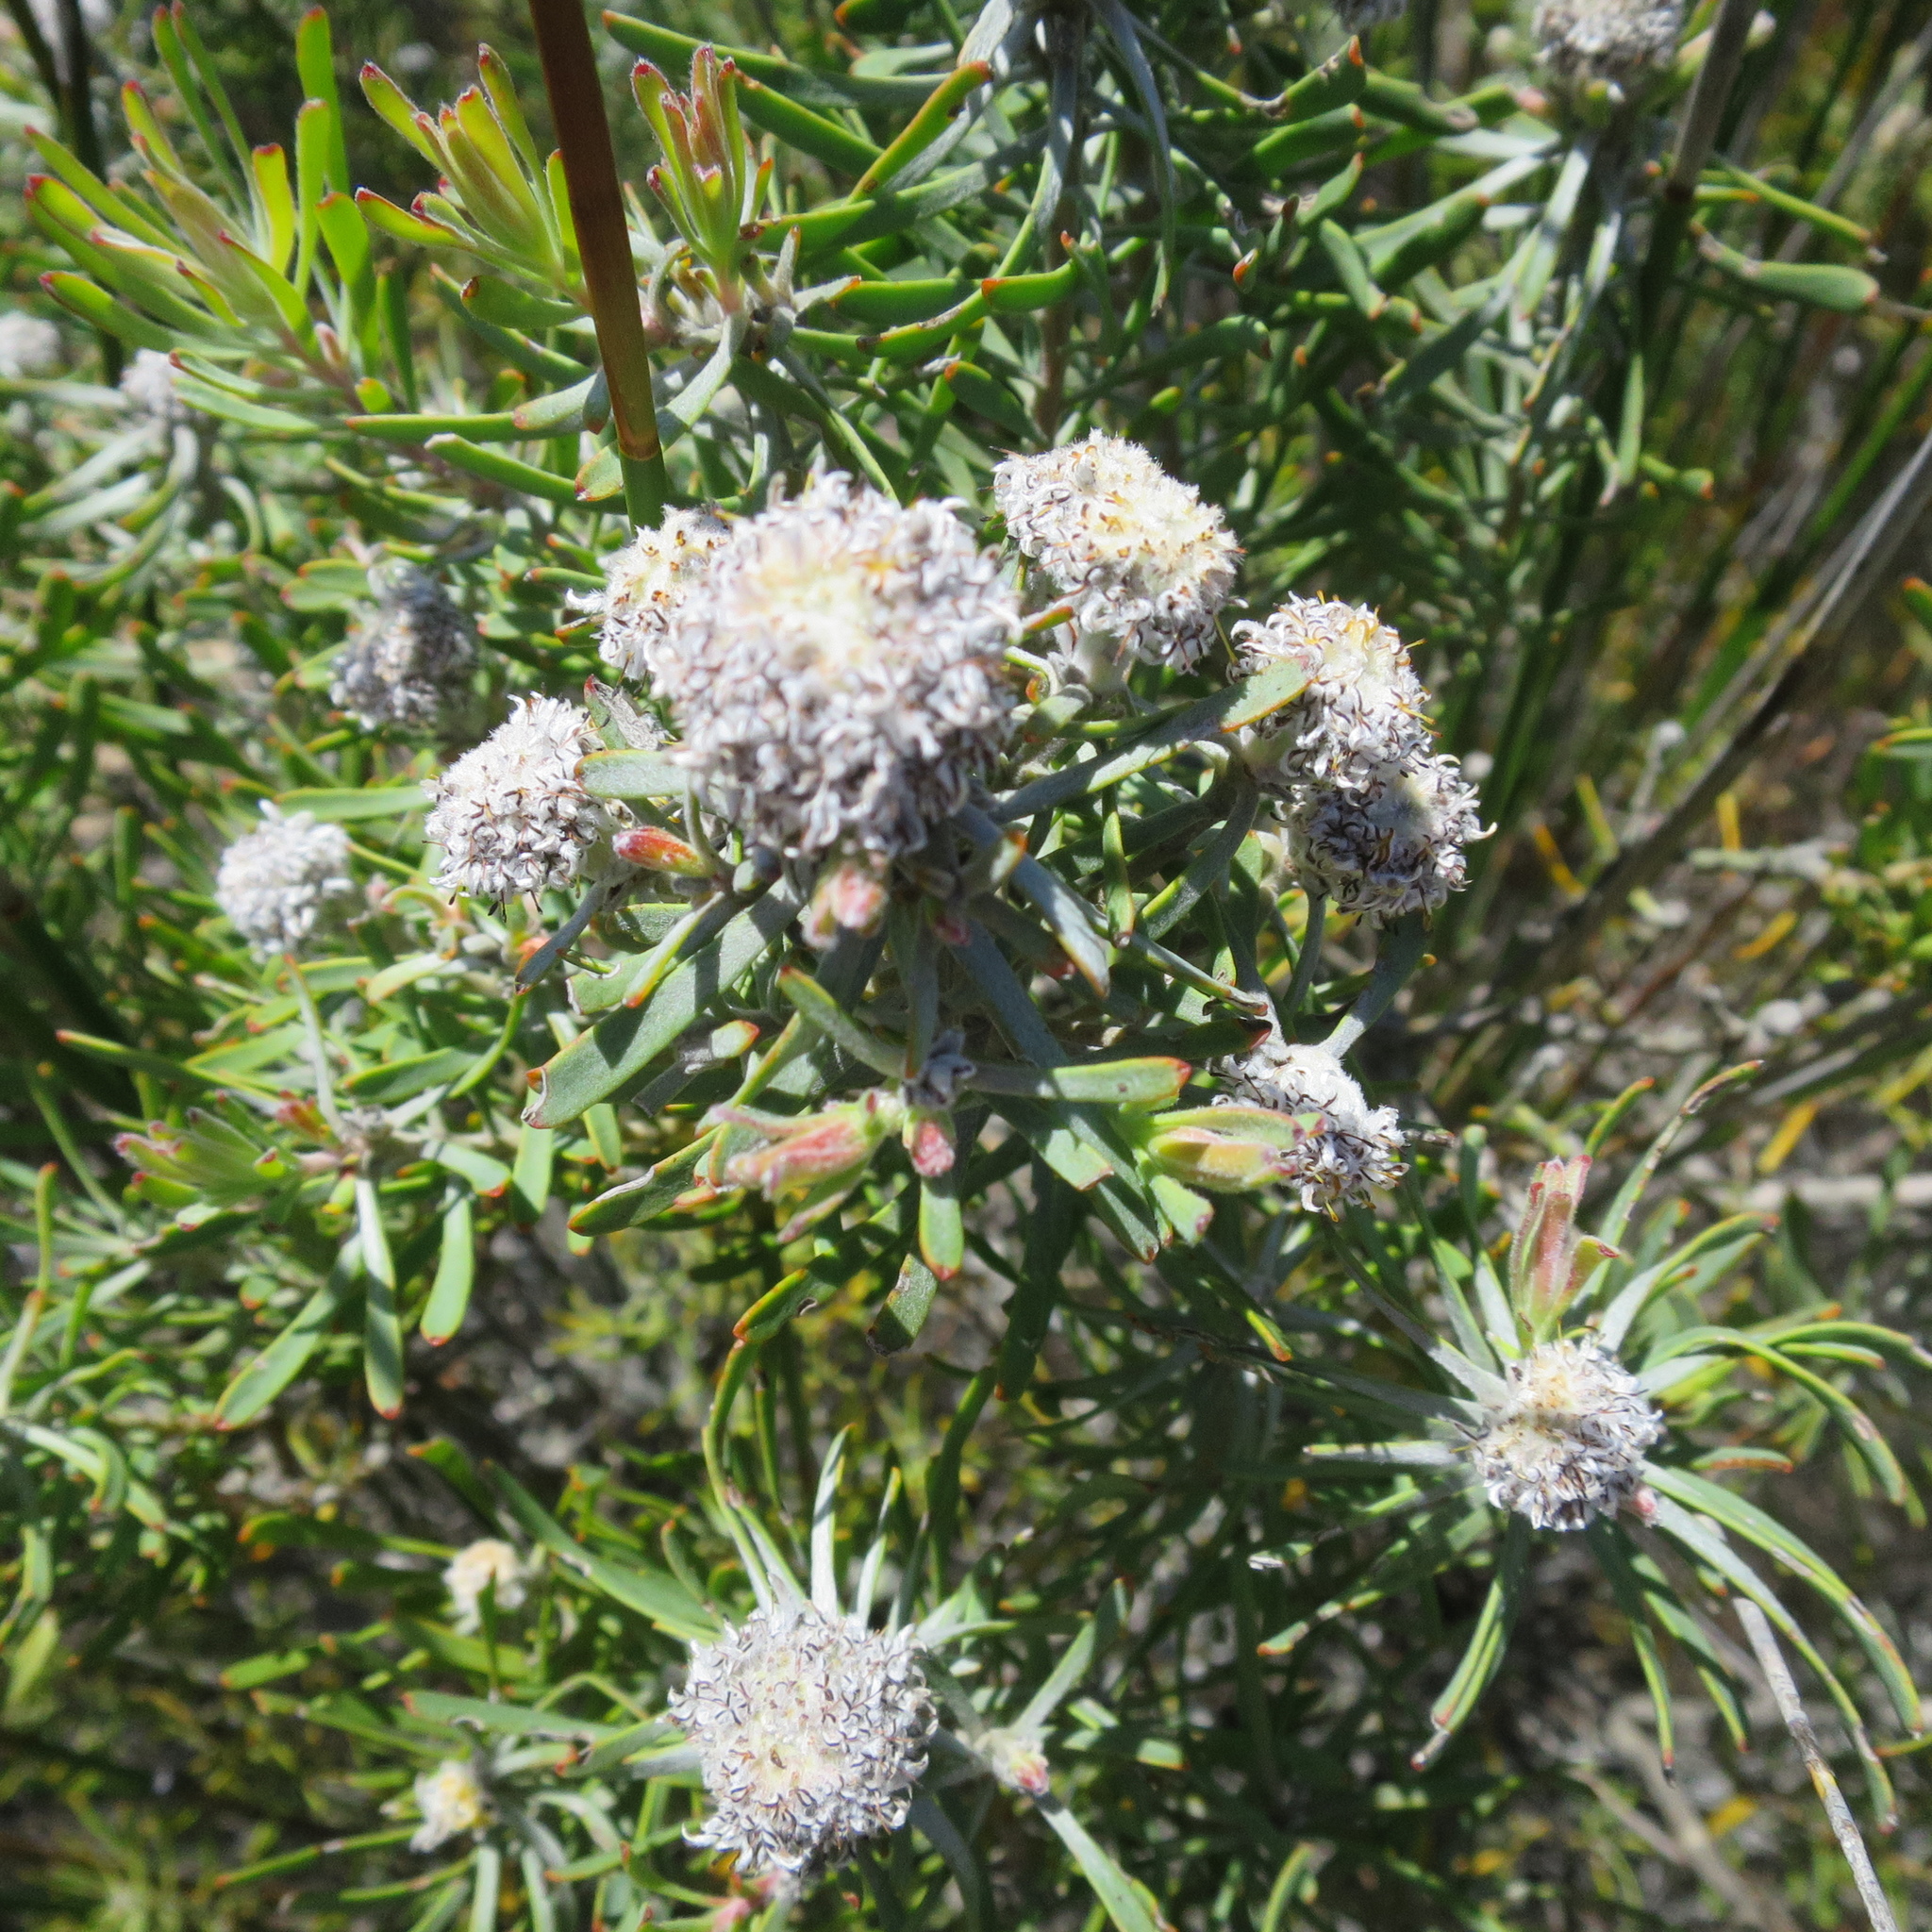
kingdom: Plantae
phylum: Tracheophyta
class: Magnoliopsida
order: Proteales
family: Proteaceae
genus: Leucadendron
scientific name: Leucadendron galpinii
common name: Hairless conebush
